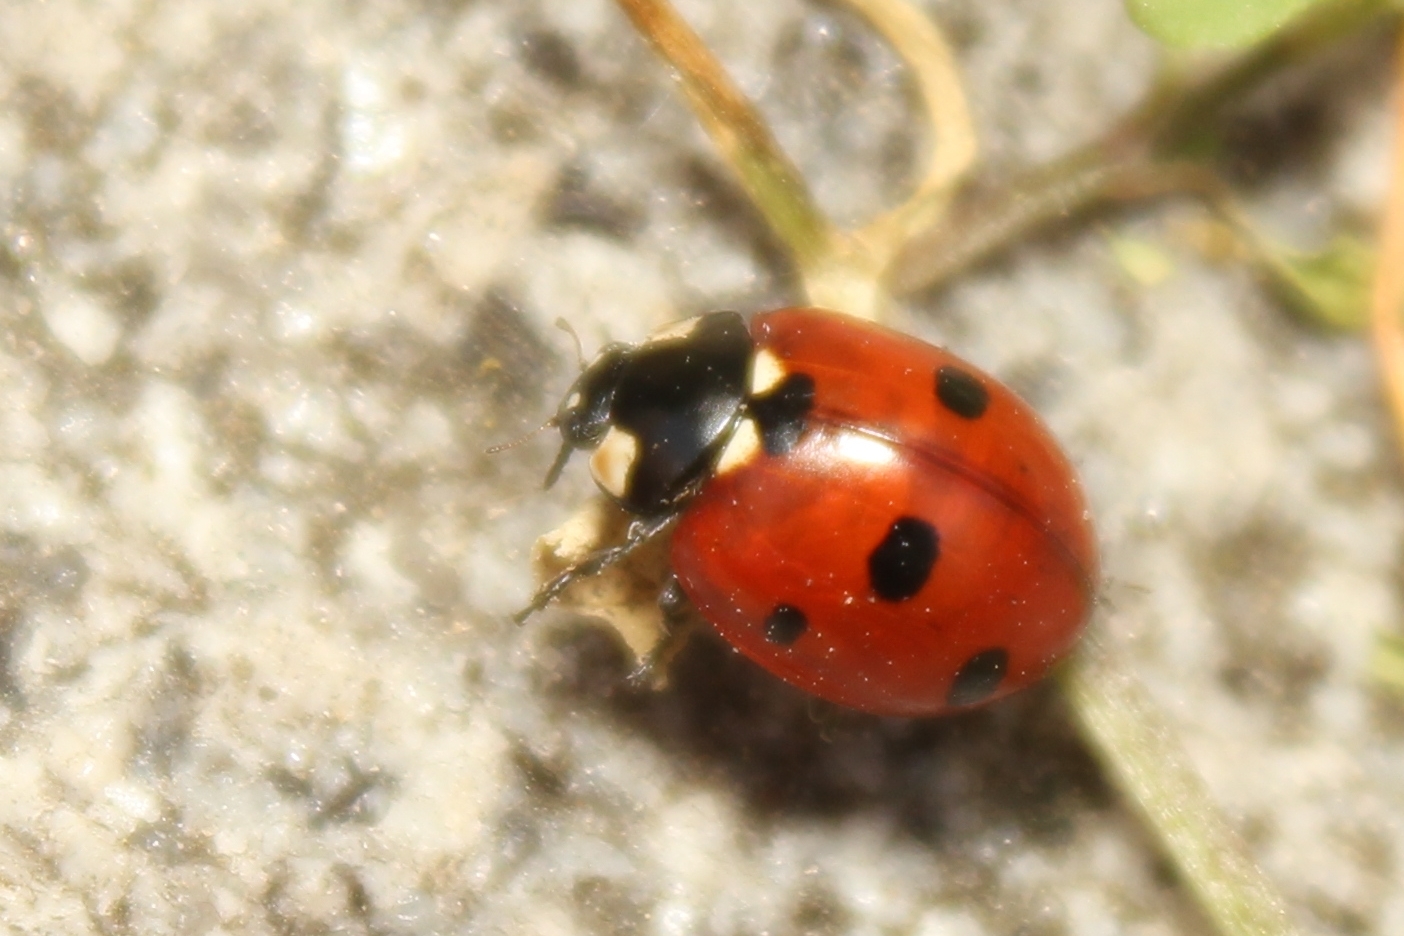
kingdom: Animalia
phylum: Arthropoda
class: Insecta
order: Coleoptera
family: Coccinellidae
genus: Coccinella
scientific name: Coccinella septempunctata
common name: Sevenspotted lady beetle
